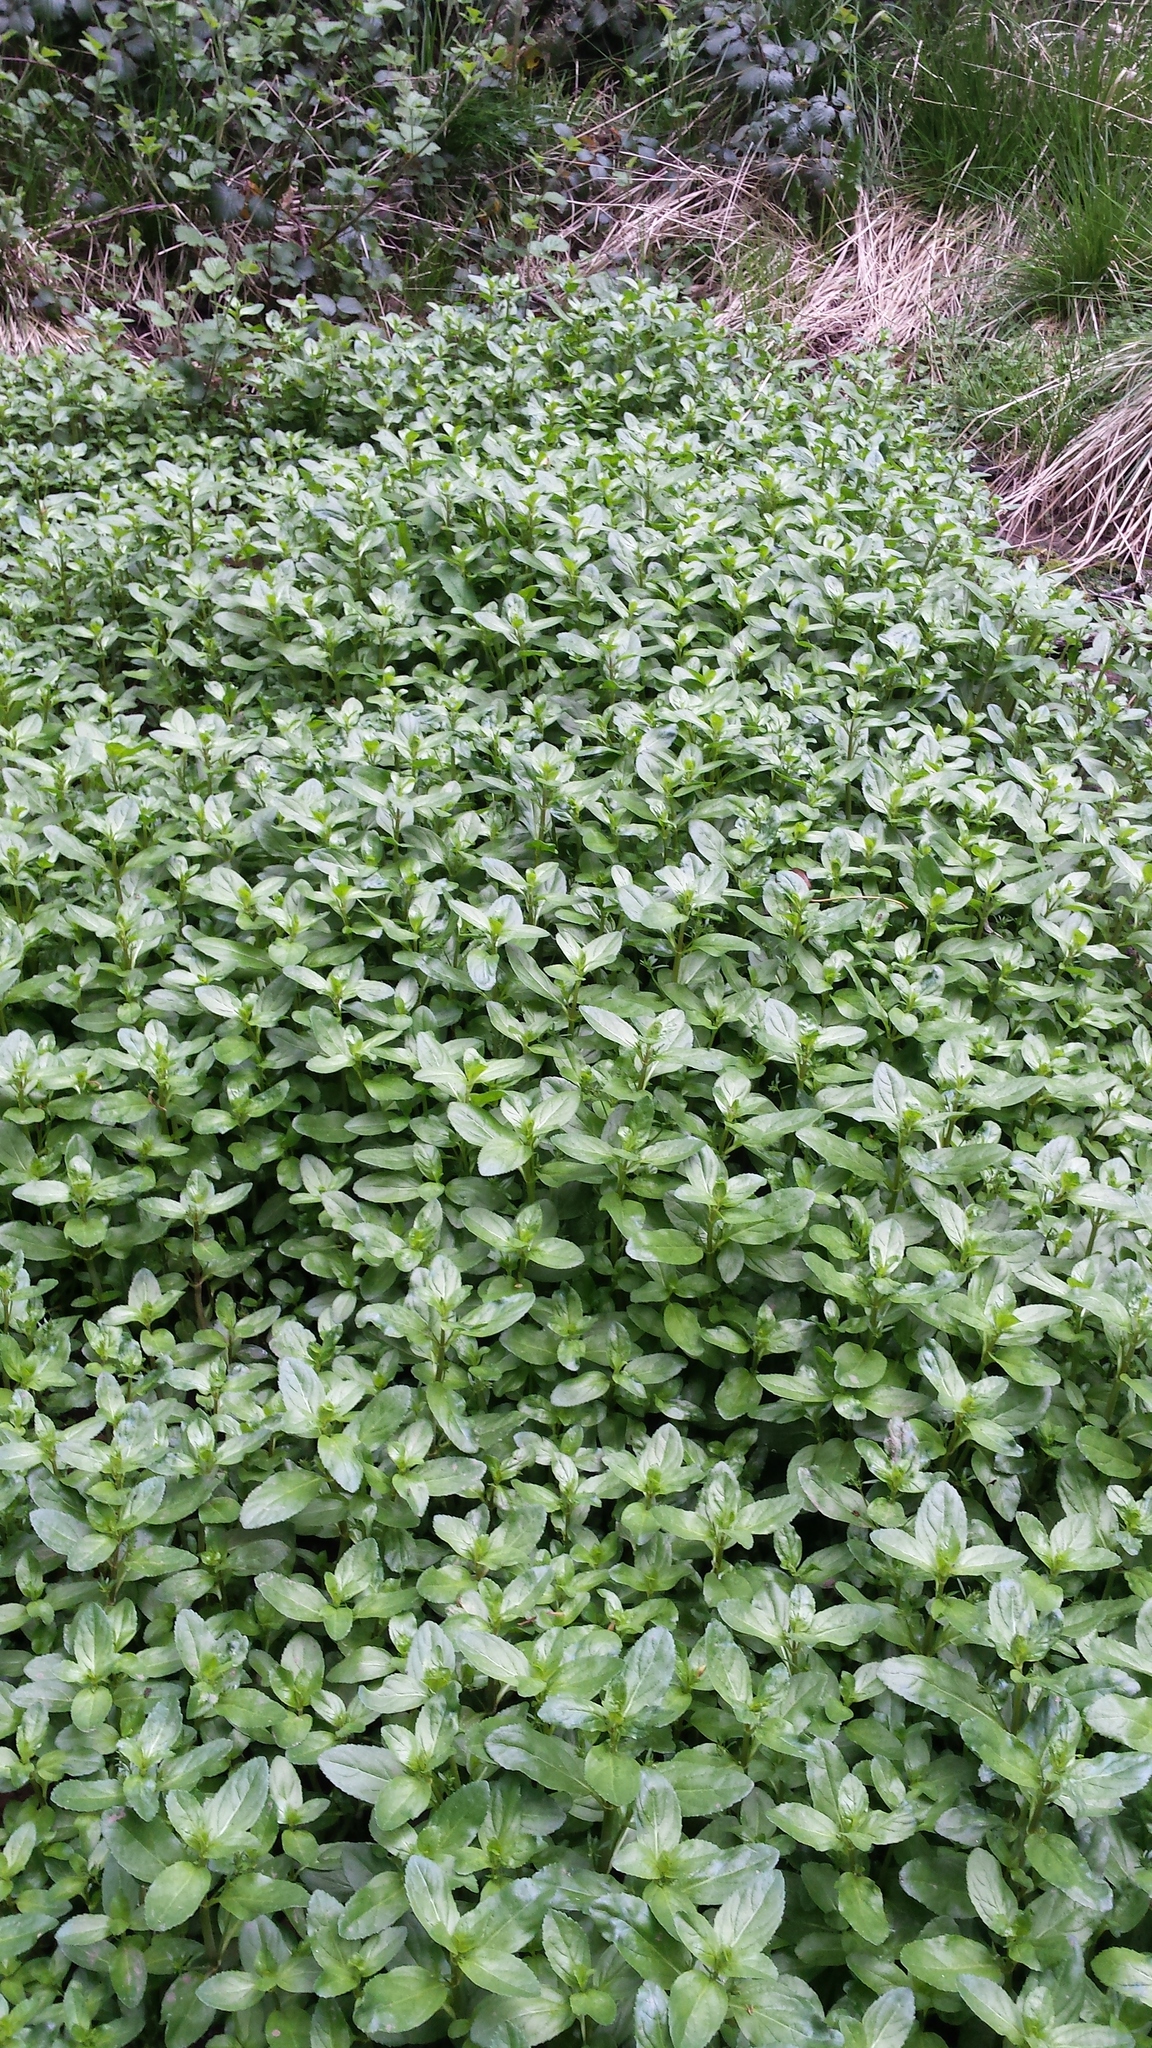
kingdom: Plantae
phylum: Tracheophyta
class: Magnoliopsida
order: Lamiales
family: Plantaginaceae
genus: Veronica
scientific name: Veronica beccabunga
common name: Brooklime
